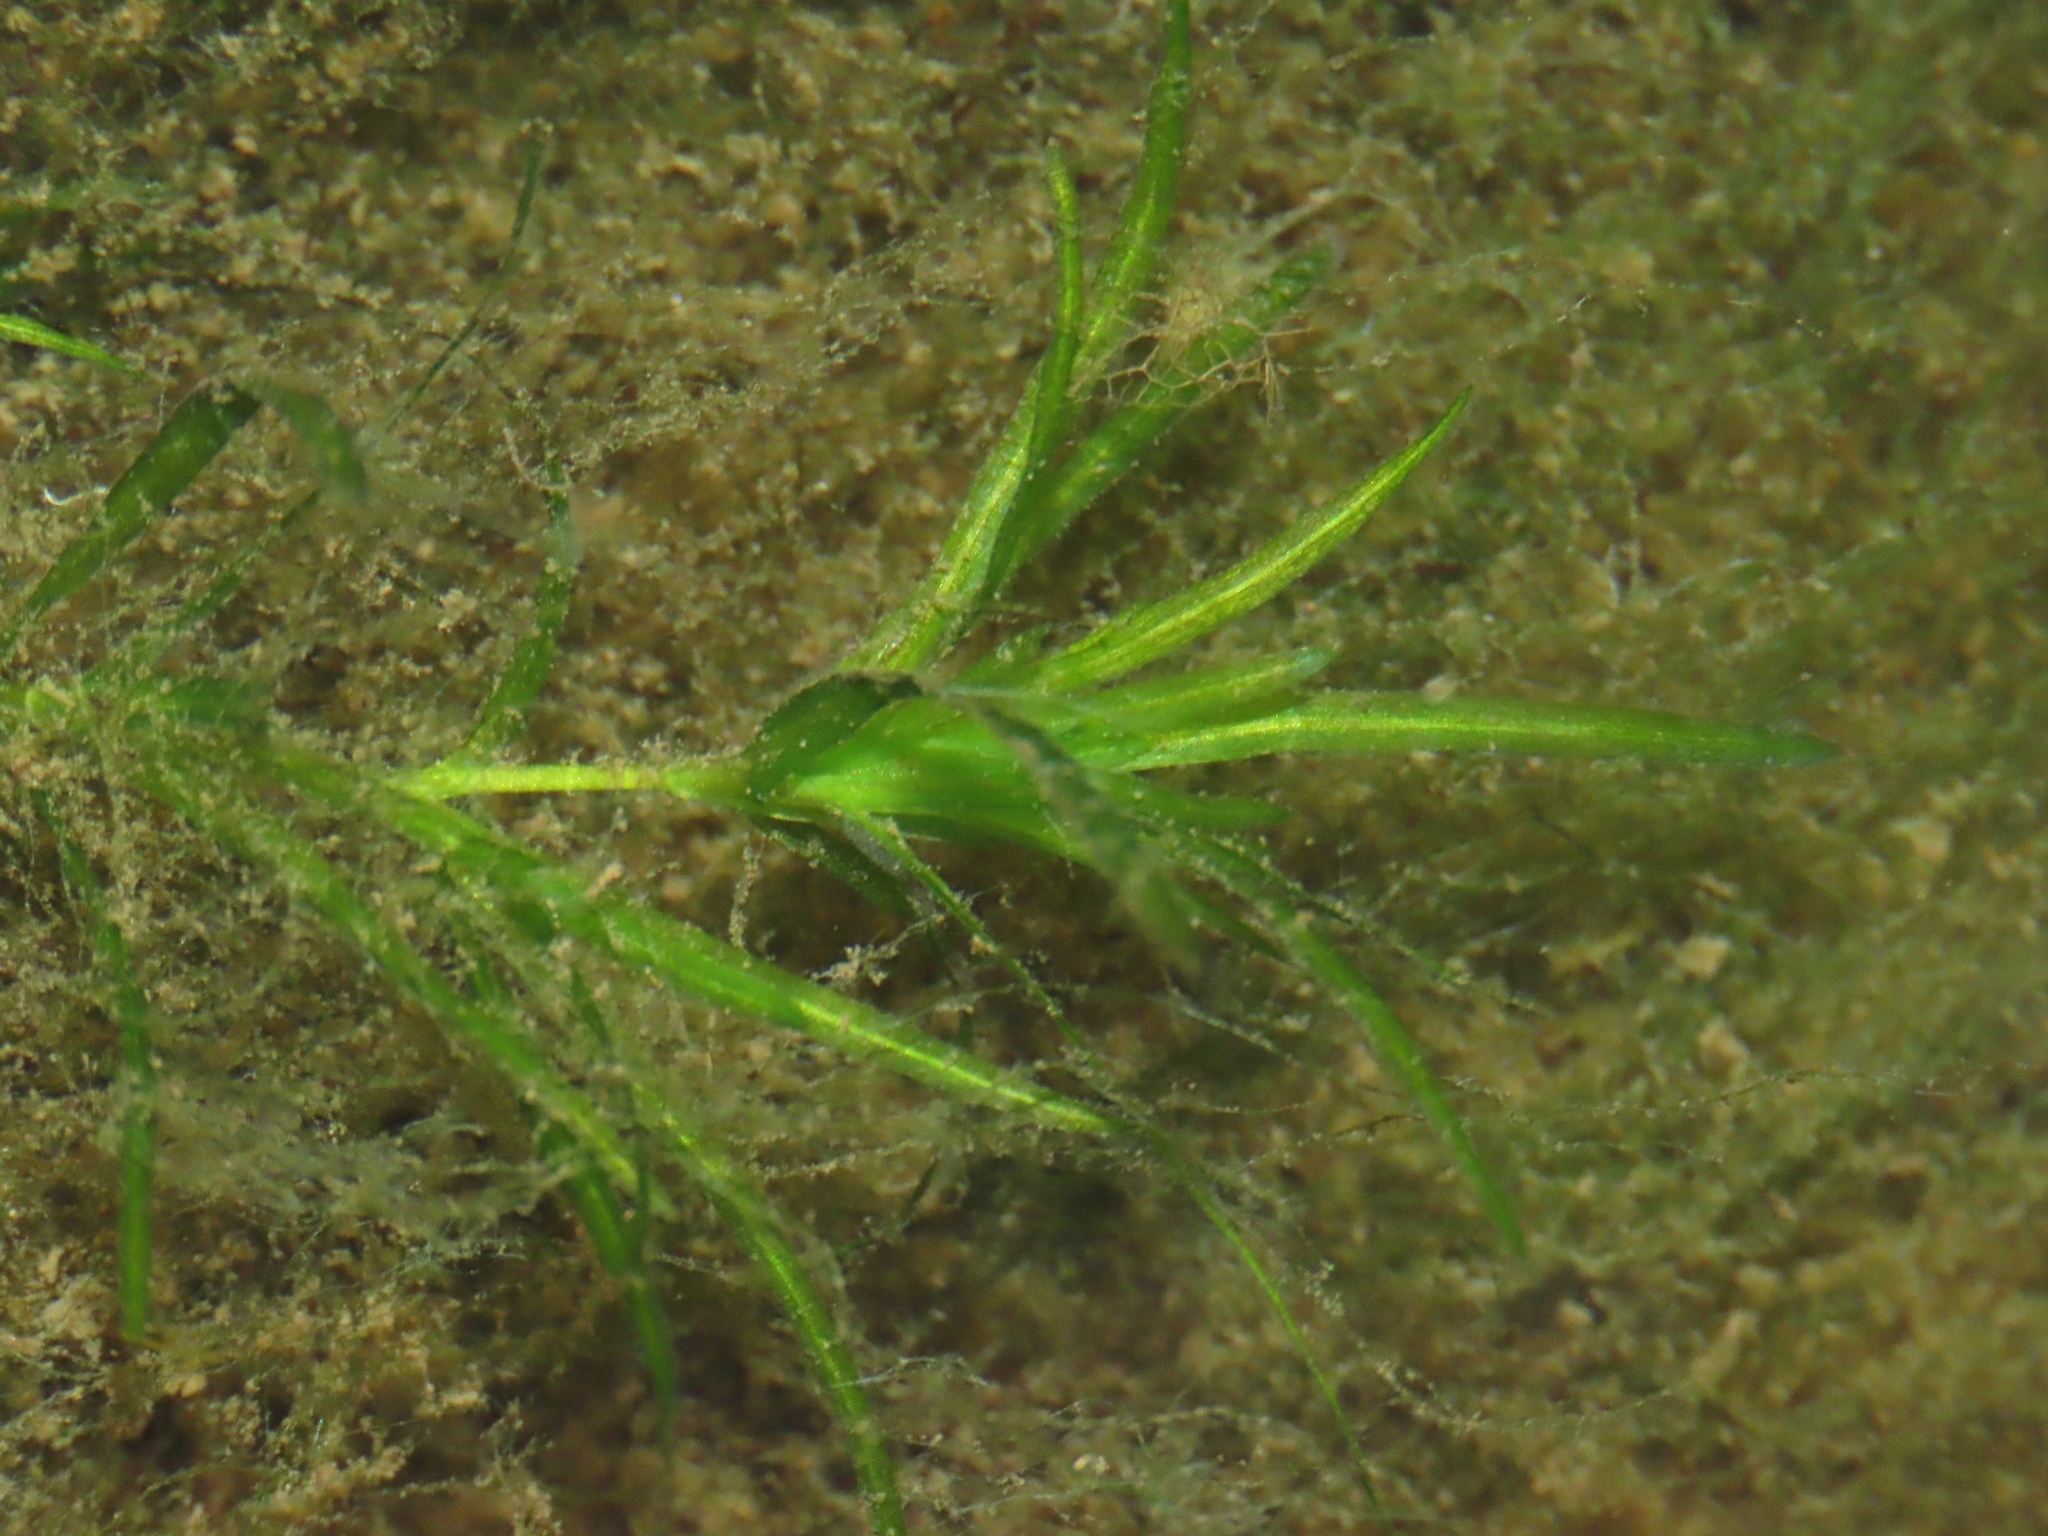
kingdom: Plantae
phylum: Tracheophyta
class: Liliopsida
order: Alismatales
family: Hydrocharitaceae
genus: Najas
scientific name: Najas guadalupensis
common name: Southern naiad
